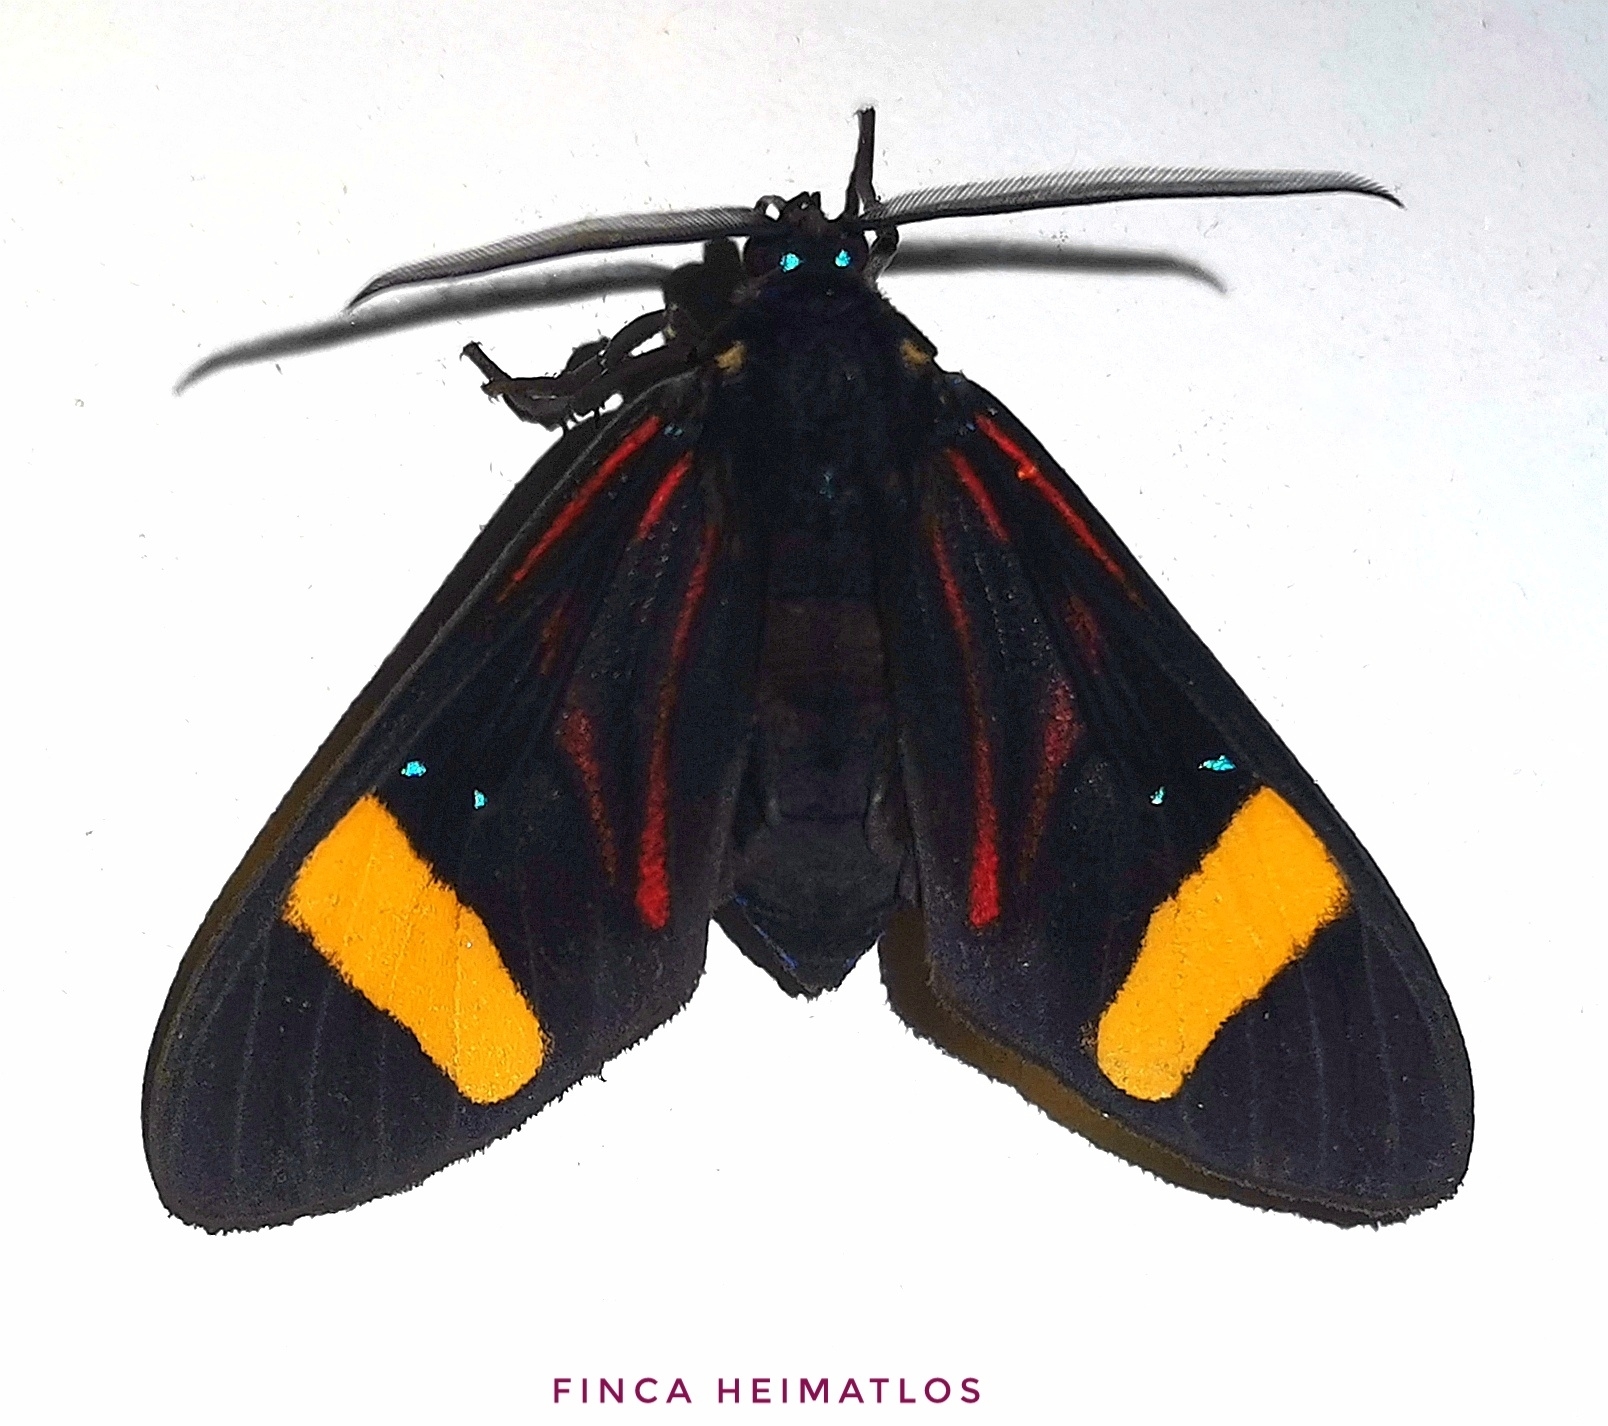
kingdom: Animalia
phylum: Arthropoda
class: Insecta
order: Lepidoptera
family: Erebidae
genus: Histioea
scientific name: Histioea proserpina
